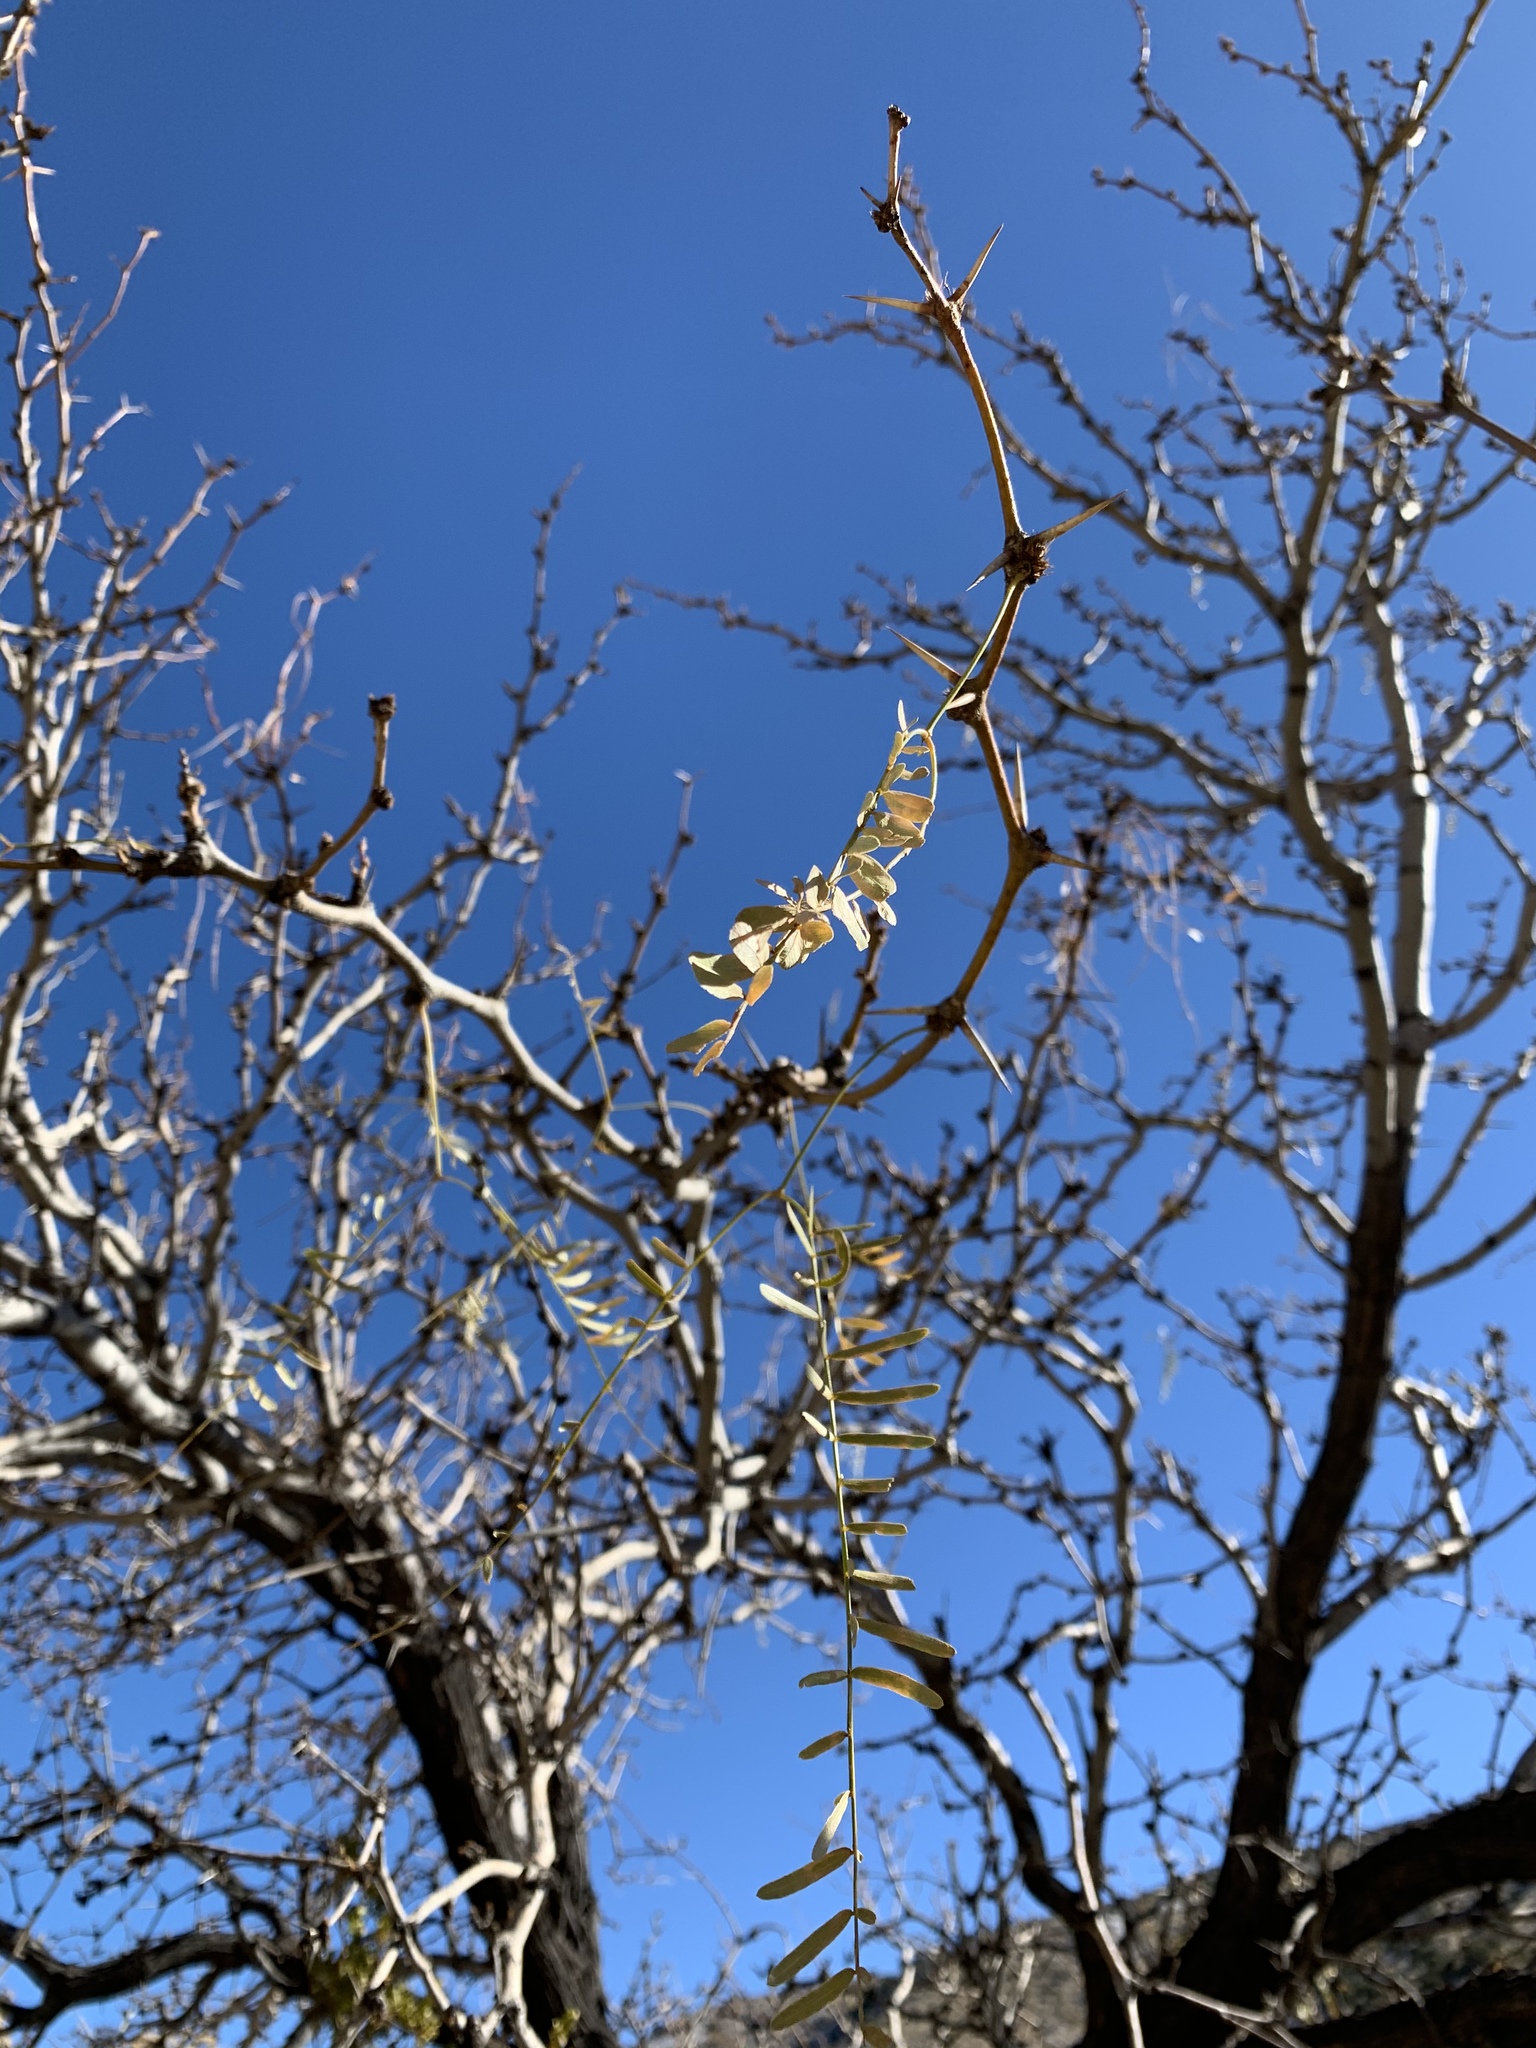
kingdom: Plantae
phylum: Tracheophyta
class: Magnoliopsida
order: Fabales
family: Fabaceae
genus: Prosopis
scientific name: Prosopis glandulosa
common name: Honey mesquite
